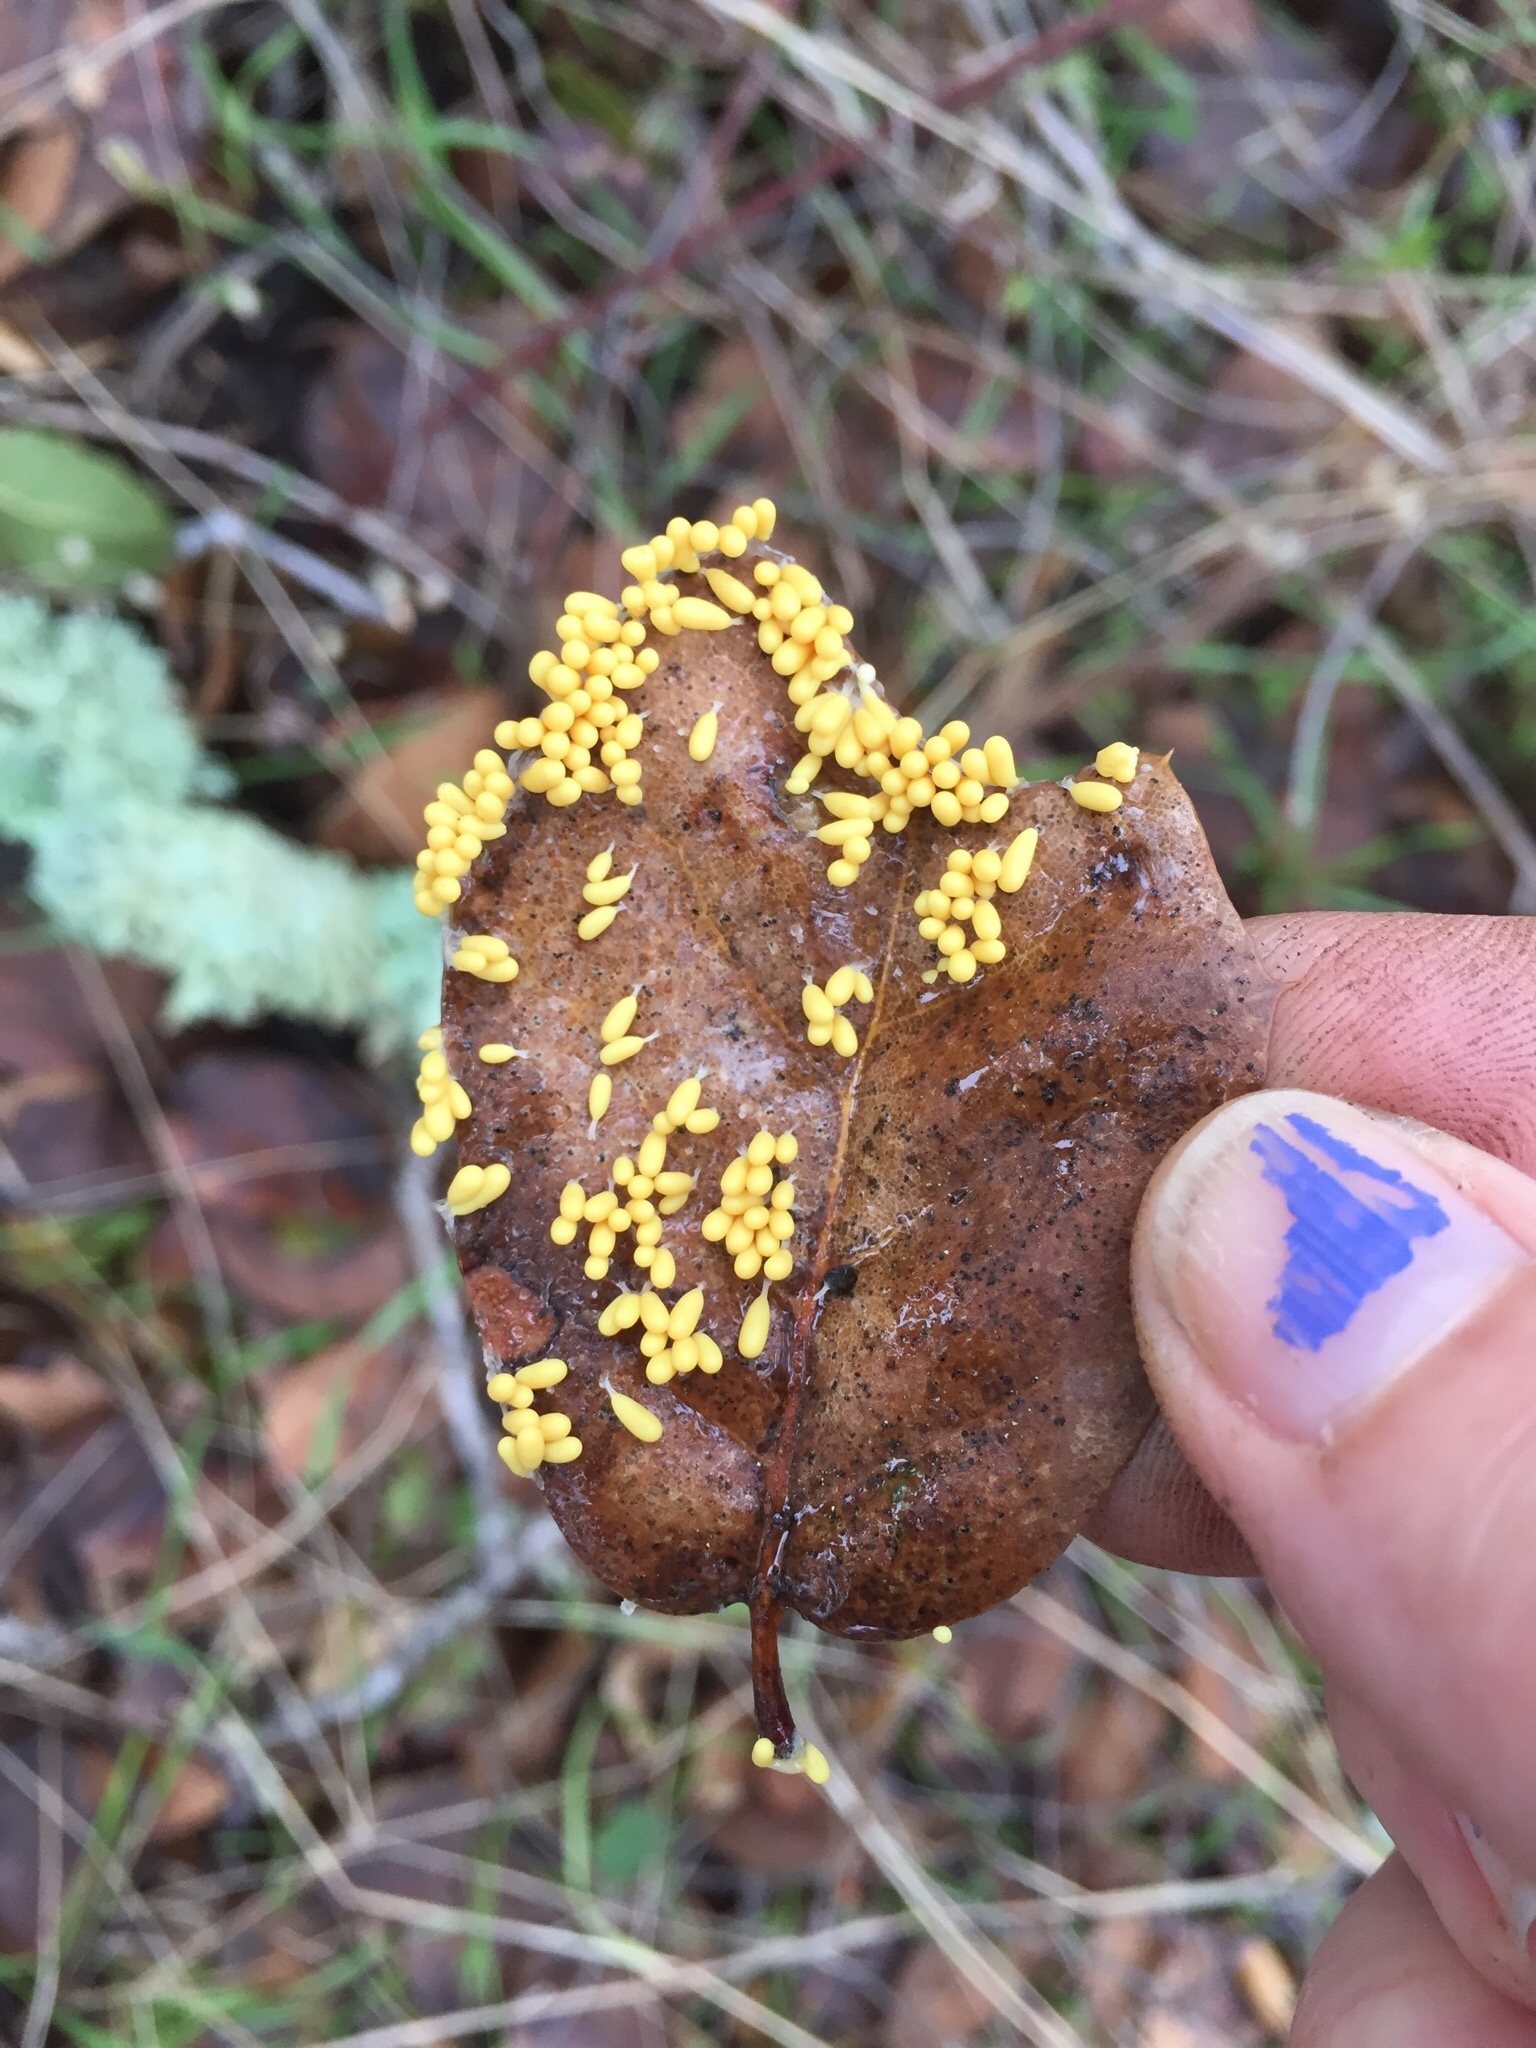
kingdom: Protozoa
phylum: Mycetozoa
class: Myxomycetes
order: Physarales
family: Physaraceae
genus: Leocarpus
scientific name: Leocarpus fragilis
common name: Insect-egg slime
